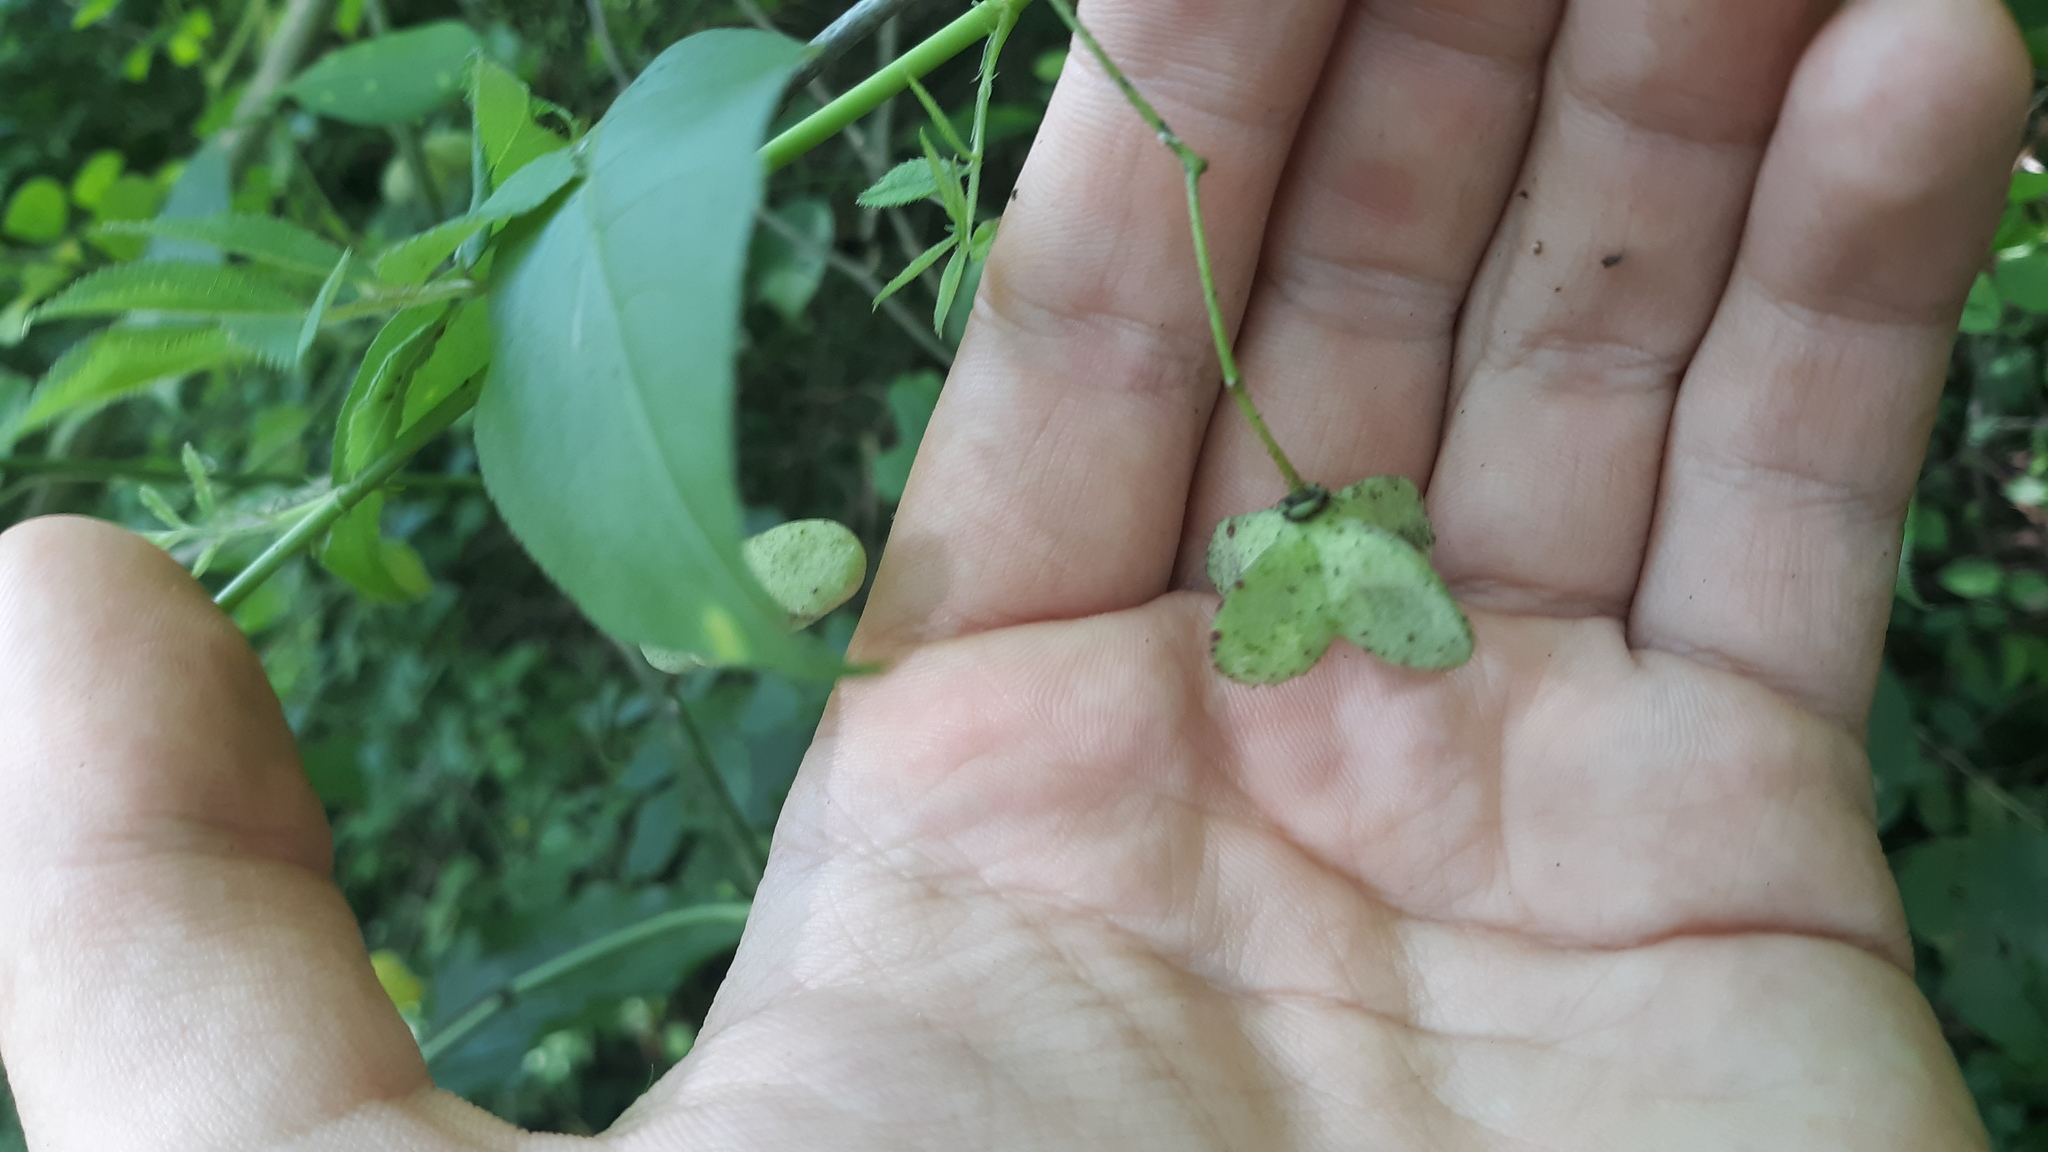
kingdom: Plantae
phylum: Tracheophyta
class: Magnoliopsida
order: Celastrales
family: Celastraceae
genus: Euonymus
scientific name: Euonymus atropurpureus
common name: Eastern wahoo
